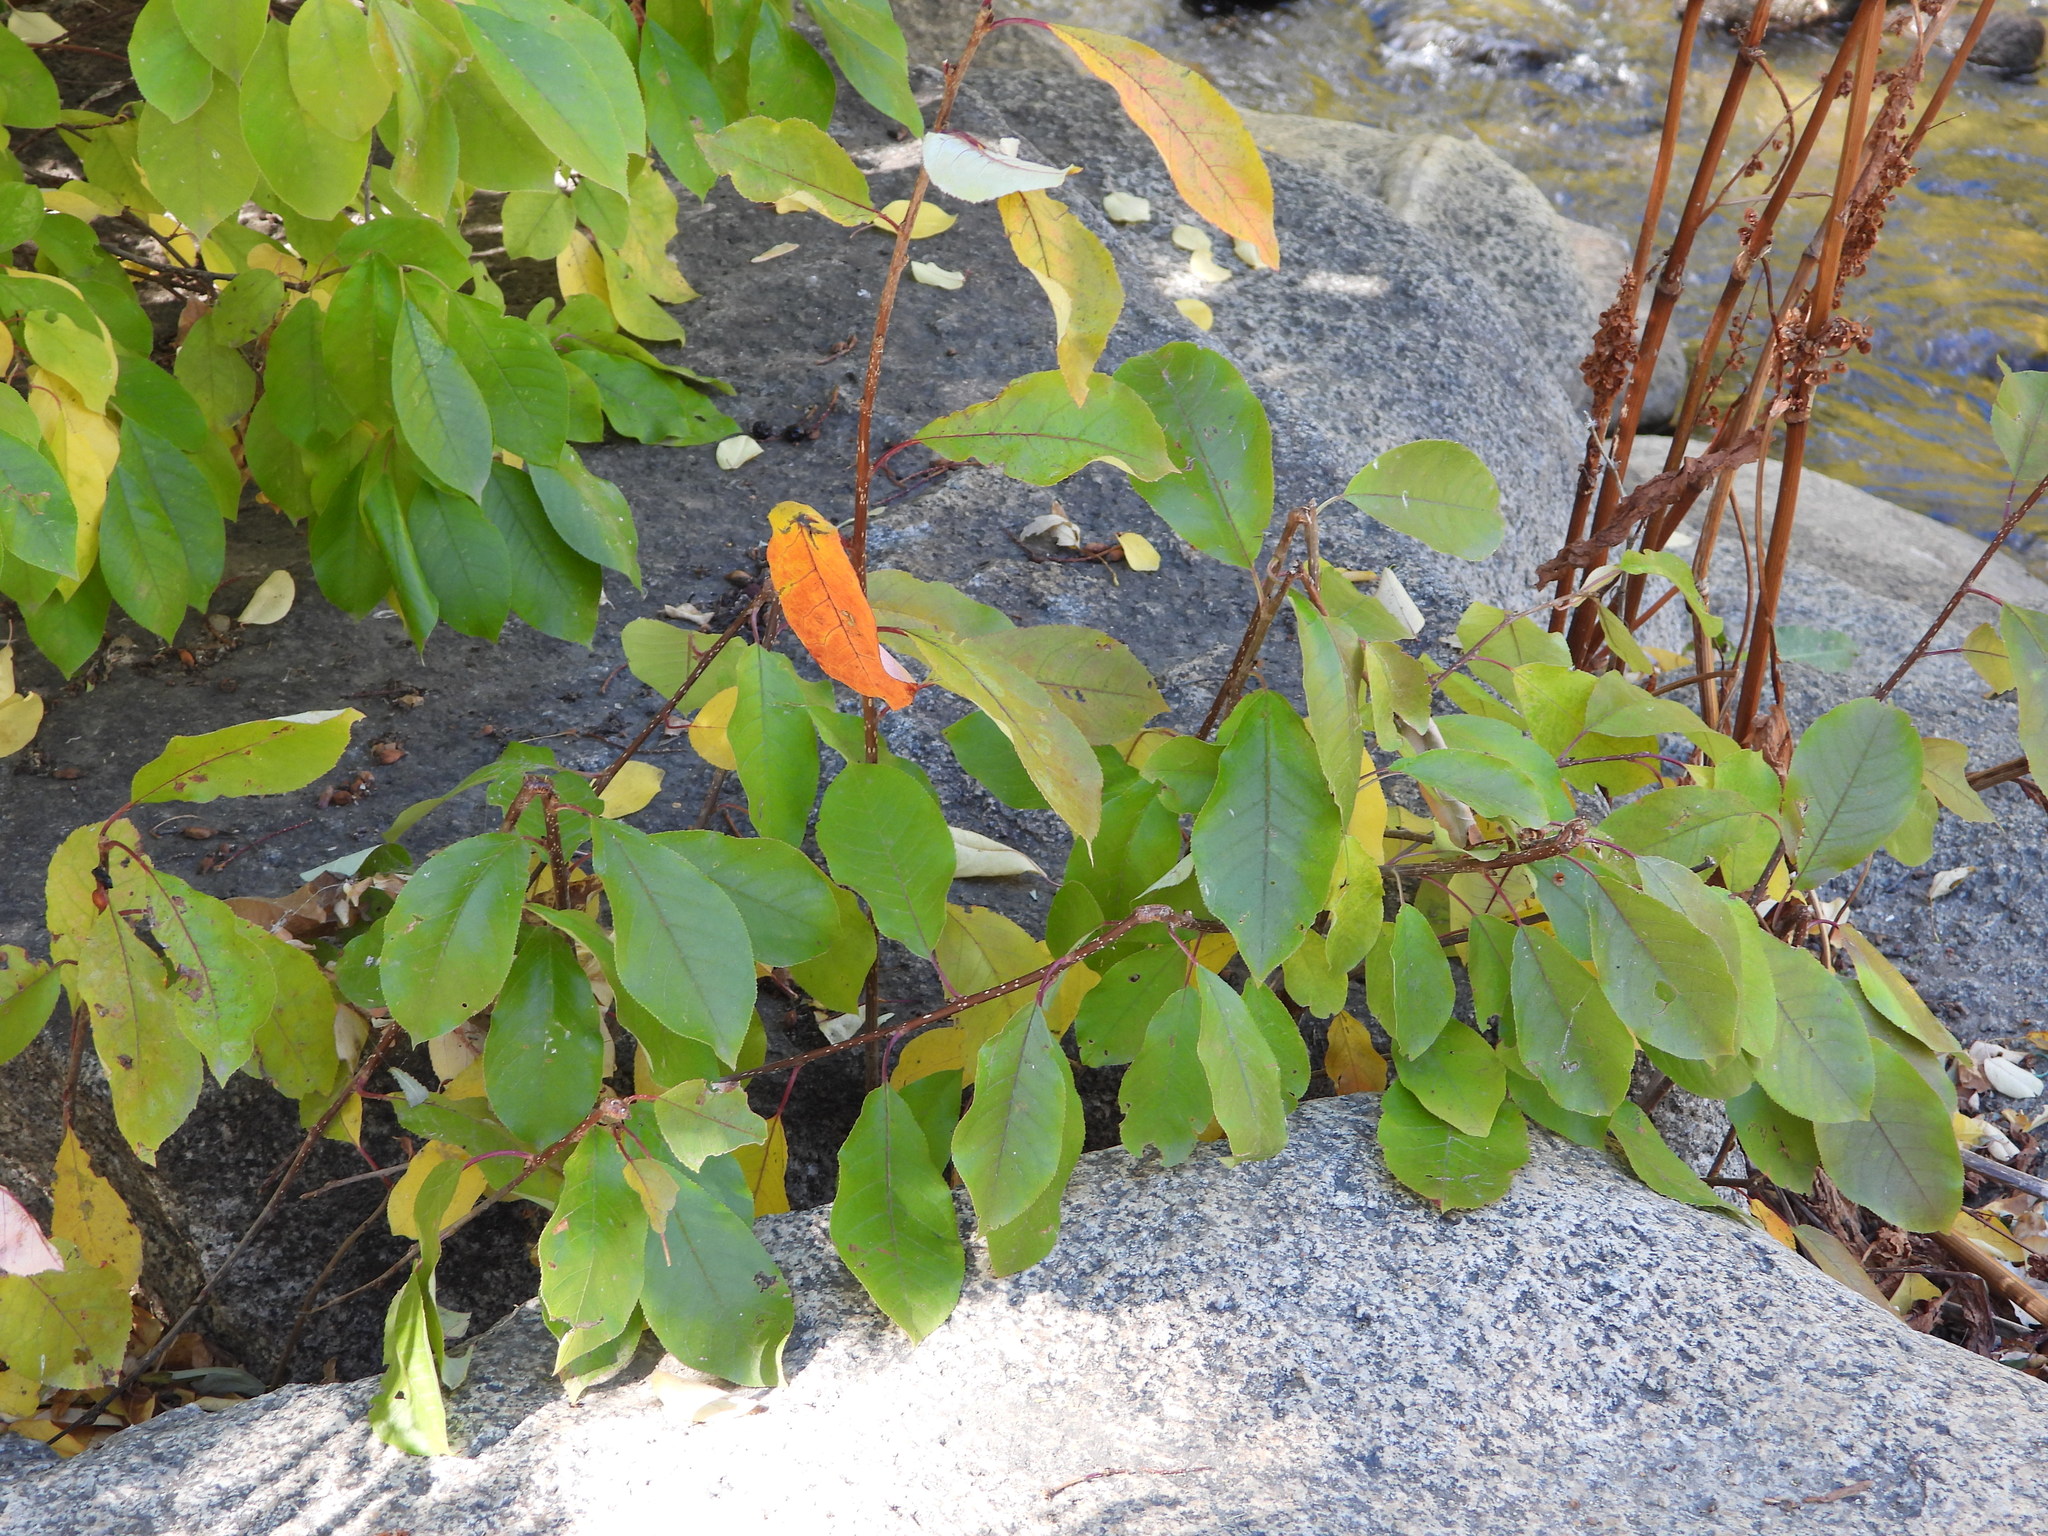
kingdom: Plantae
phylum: Tracheophyta
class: Magnoliopsida
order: Rosales
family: Rosaceae
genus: Prunus
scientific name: Prunus virginiana
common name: Chokecherry
